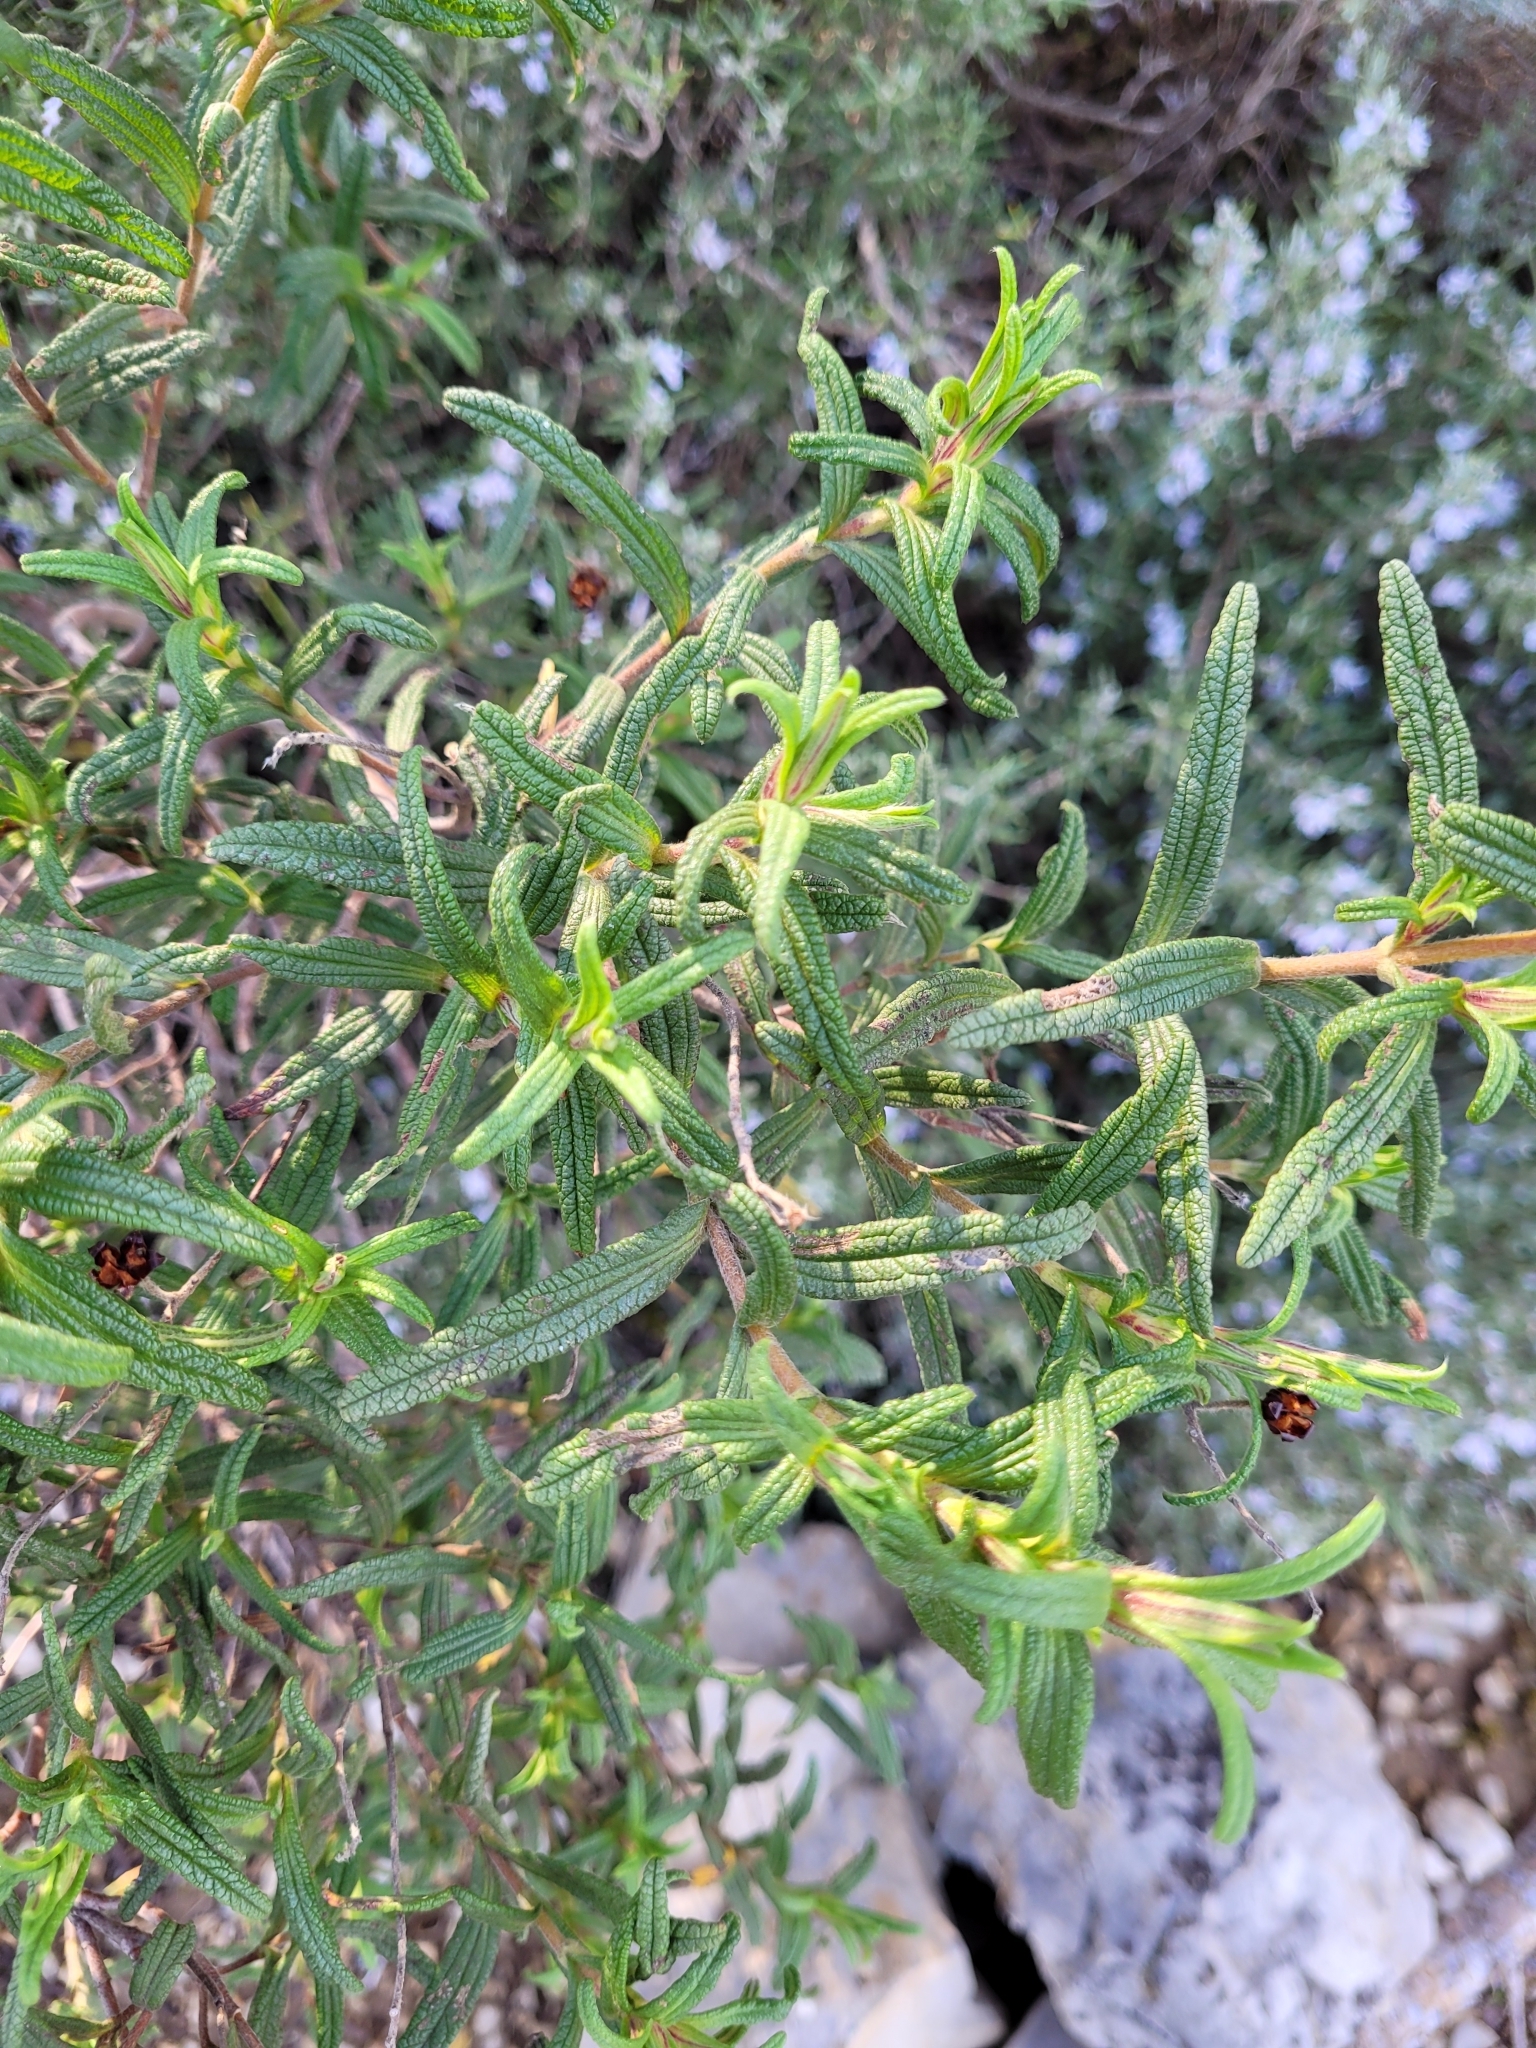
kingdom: Plantae
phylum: Tracheophyta
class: Magnoliopsida
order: Malvales
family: Cistaceae
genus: Cistus
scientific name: Cistus monspeliensis
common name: Montpelier cistus
